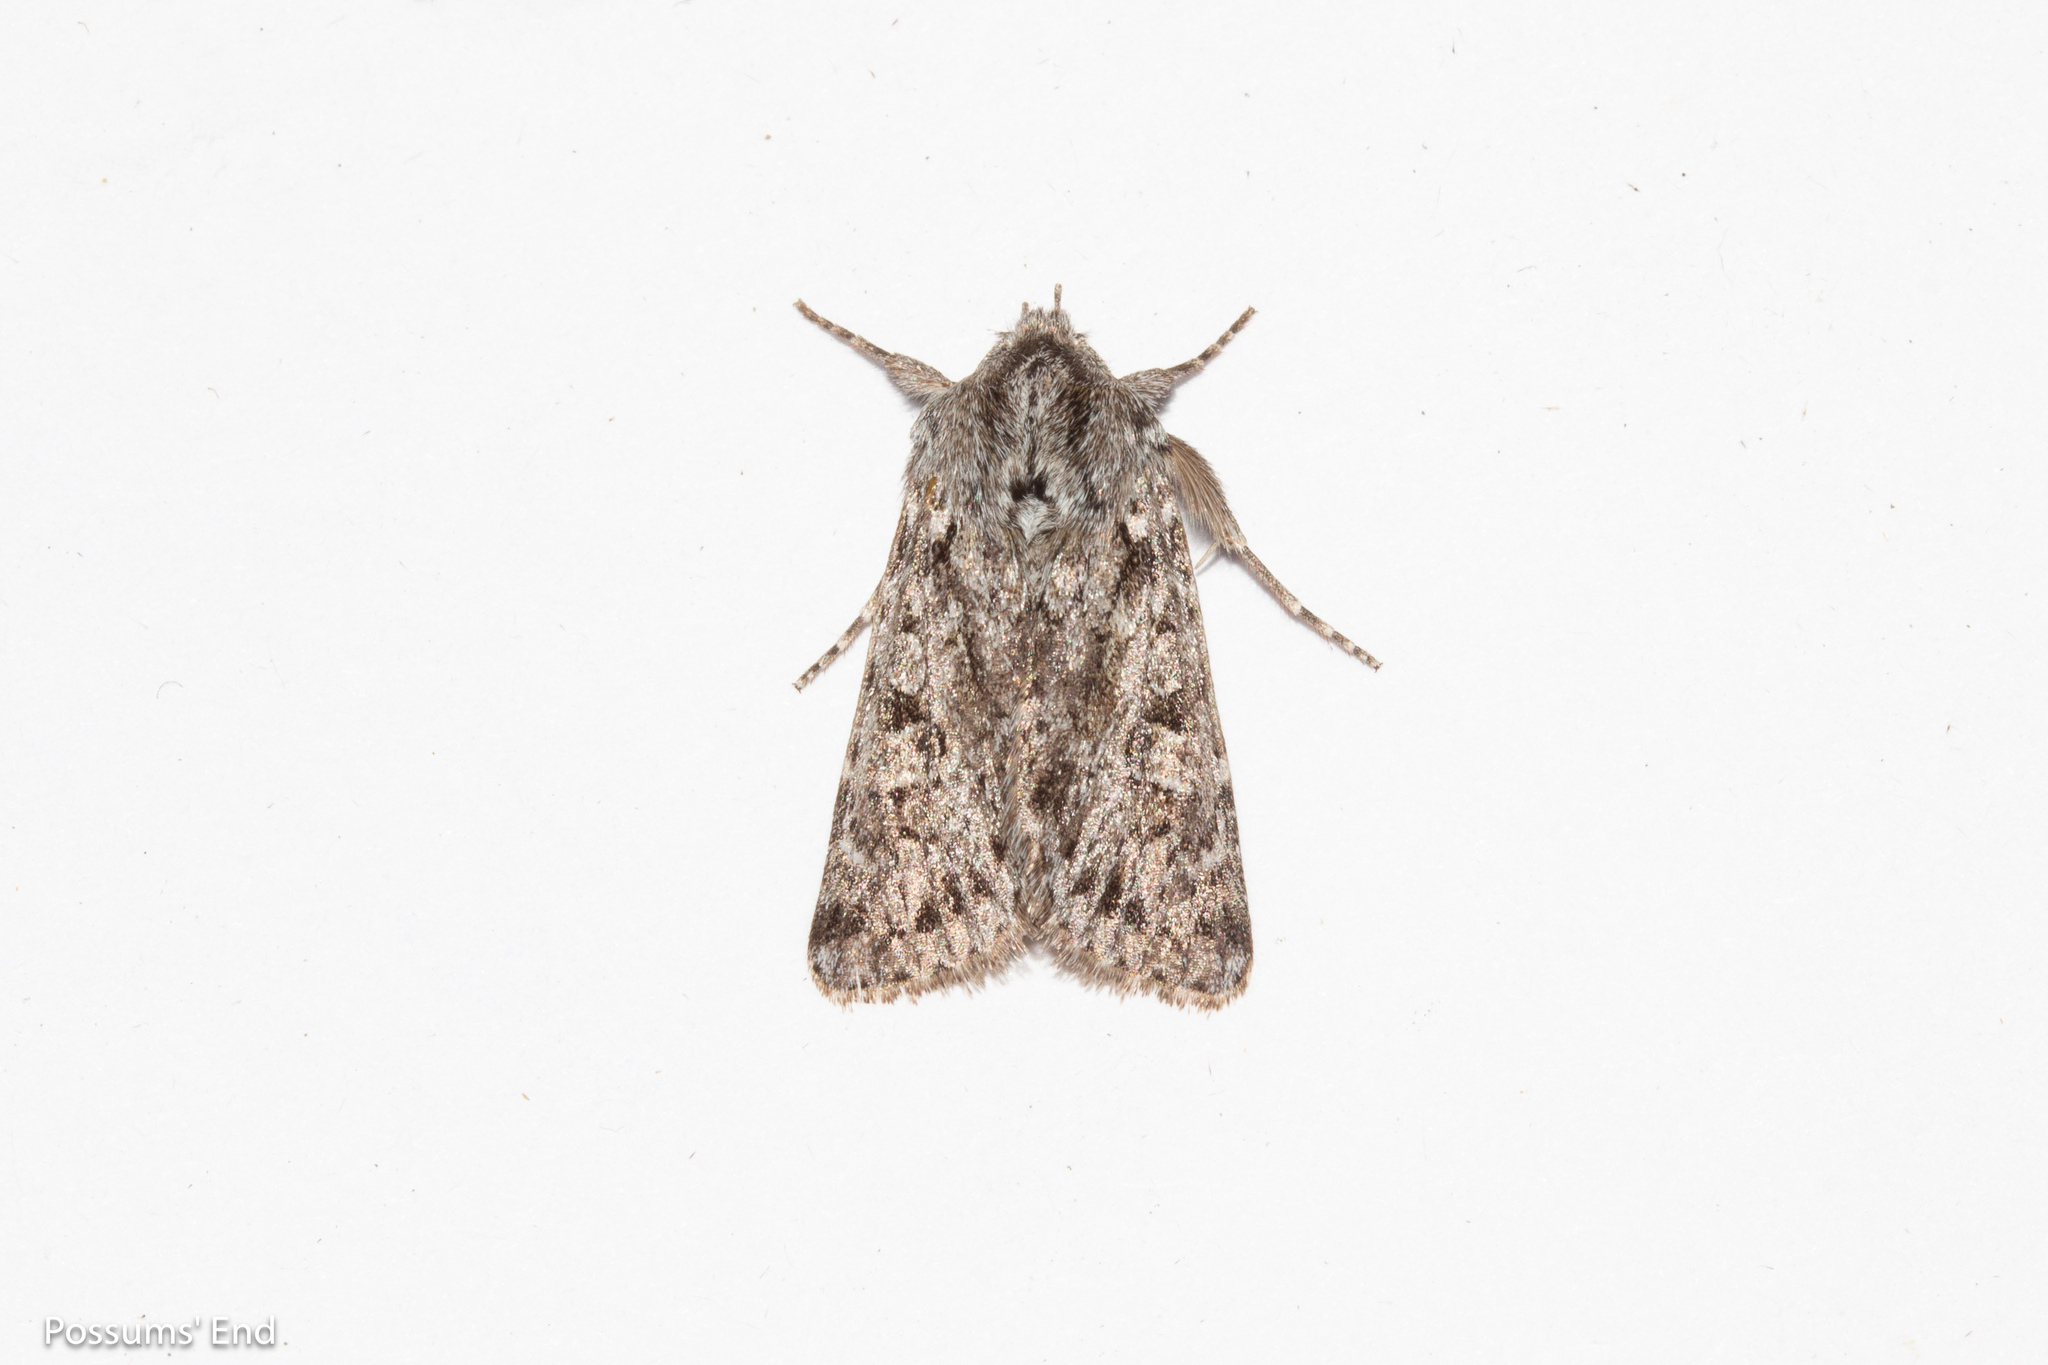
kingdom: Animalia
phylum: Arthropoda
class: Insecta
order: Lepidoptera
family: Noctuidae
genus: Physetica
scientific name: Physetica cucullina
